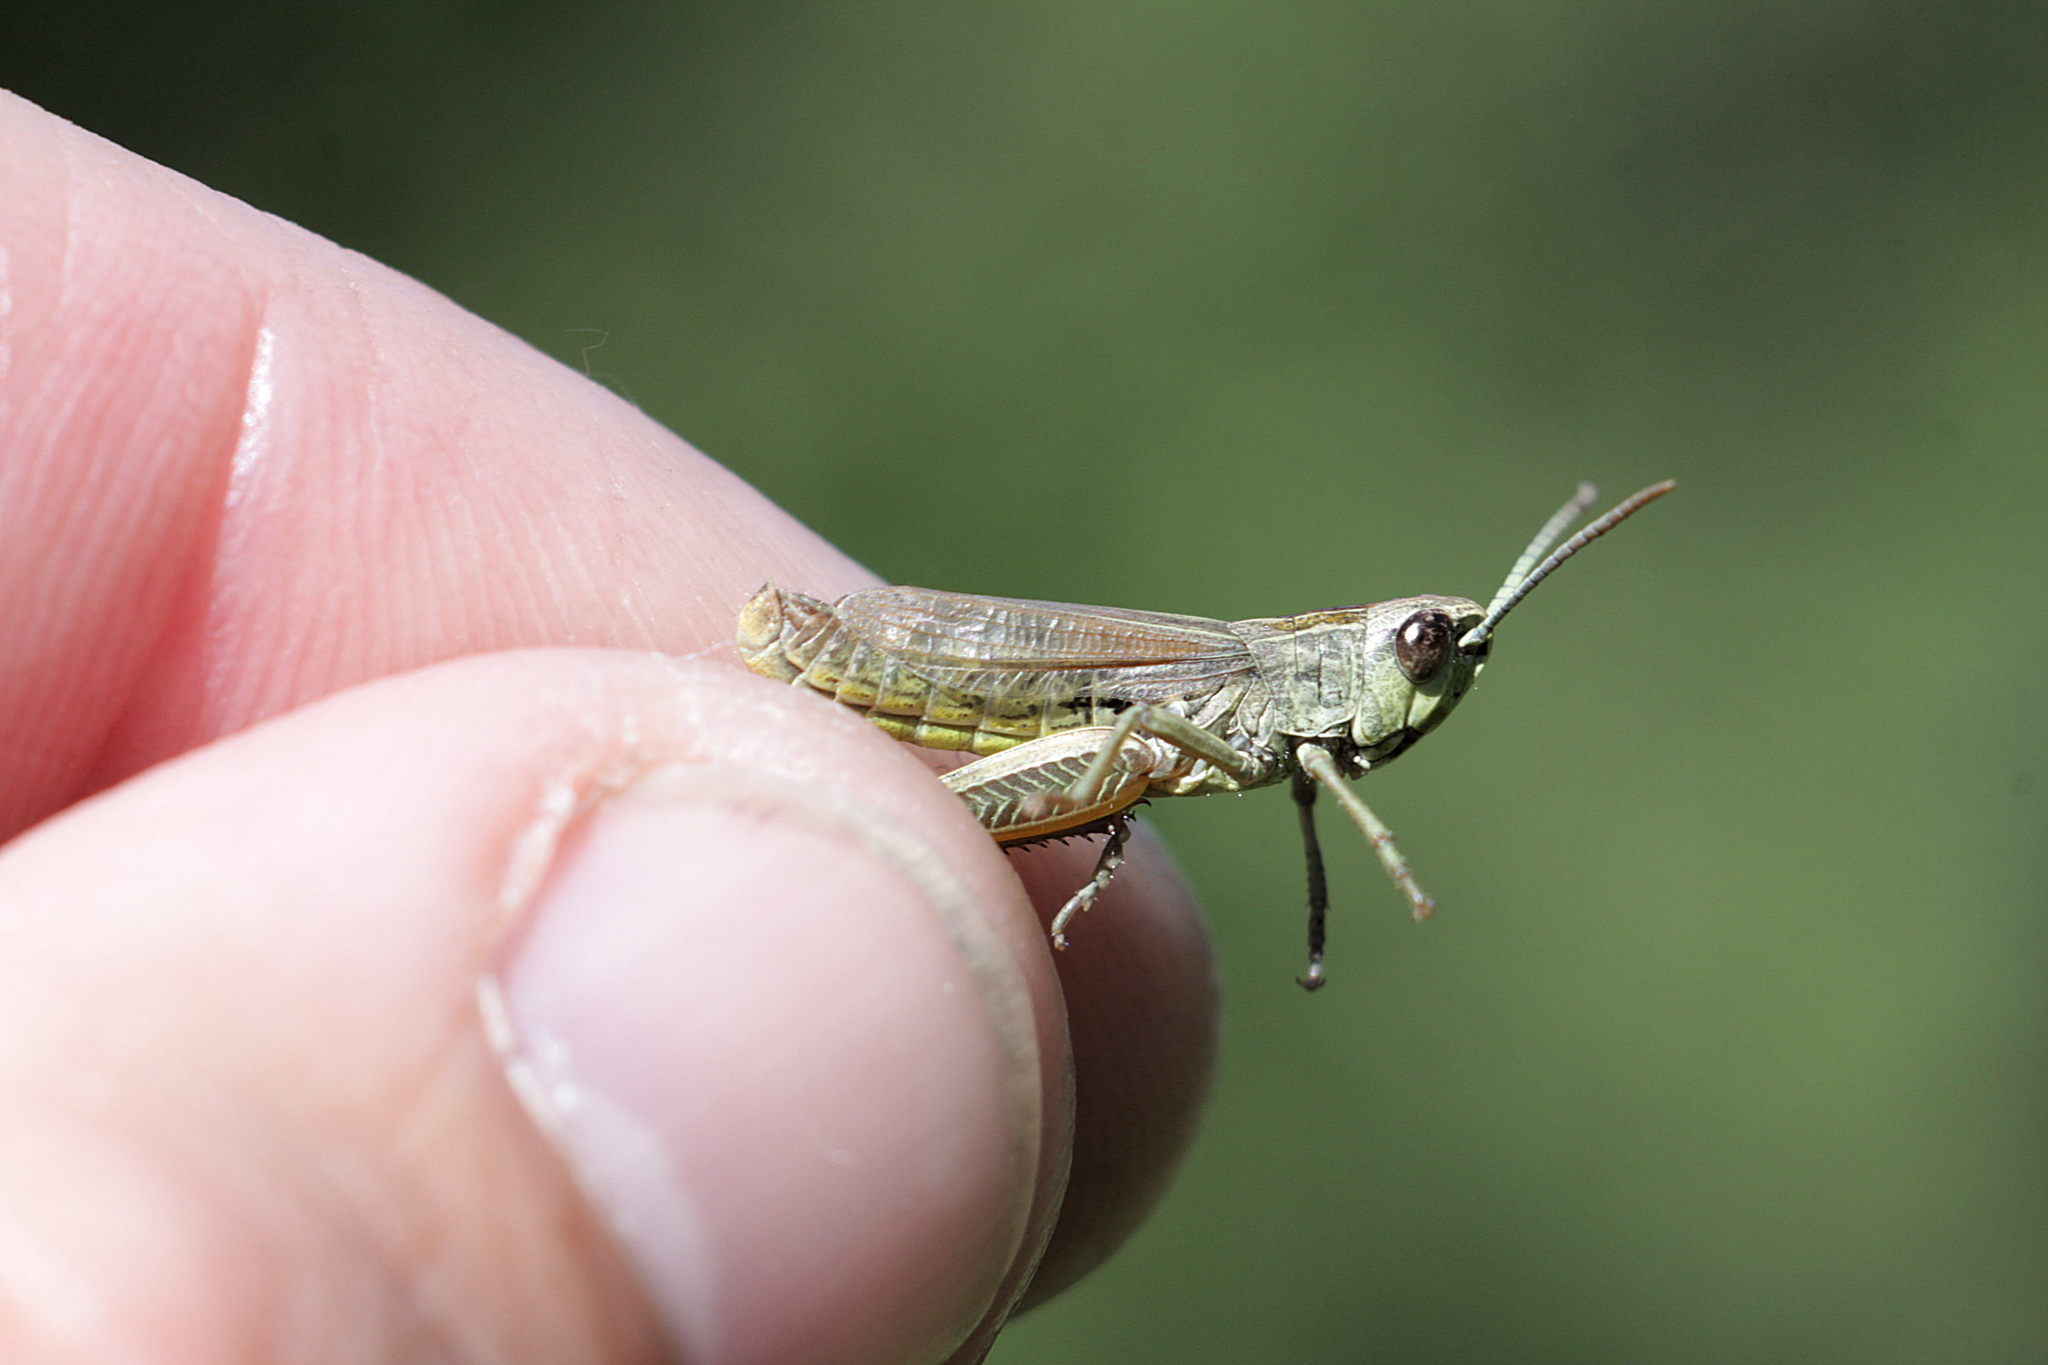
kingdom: Animalia
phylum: Arthropoda
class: Insecta
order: Orthoptera
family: Acrididae
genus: Pseudochorthippus
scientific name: Pseudochorthippus parallelus
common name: Meadow grasshopper
